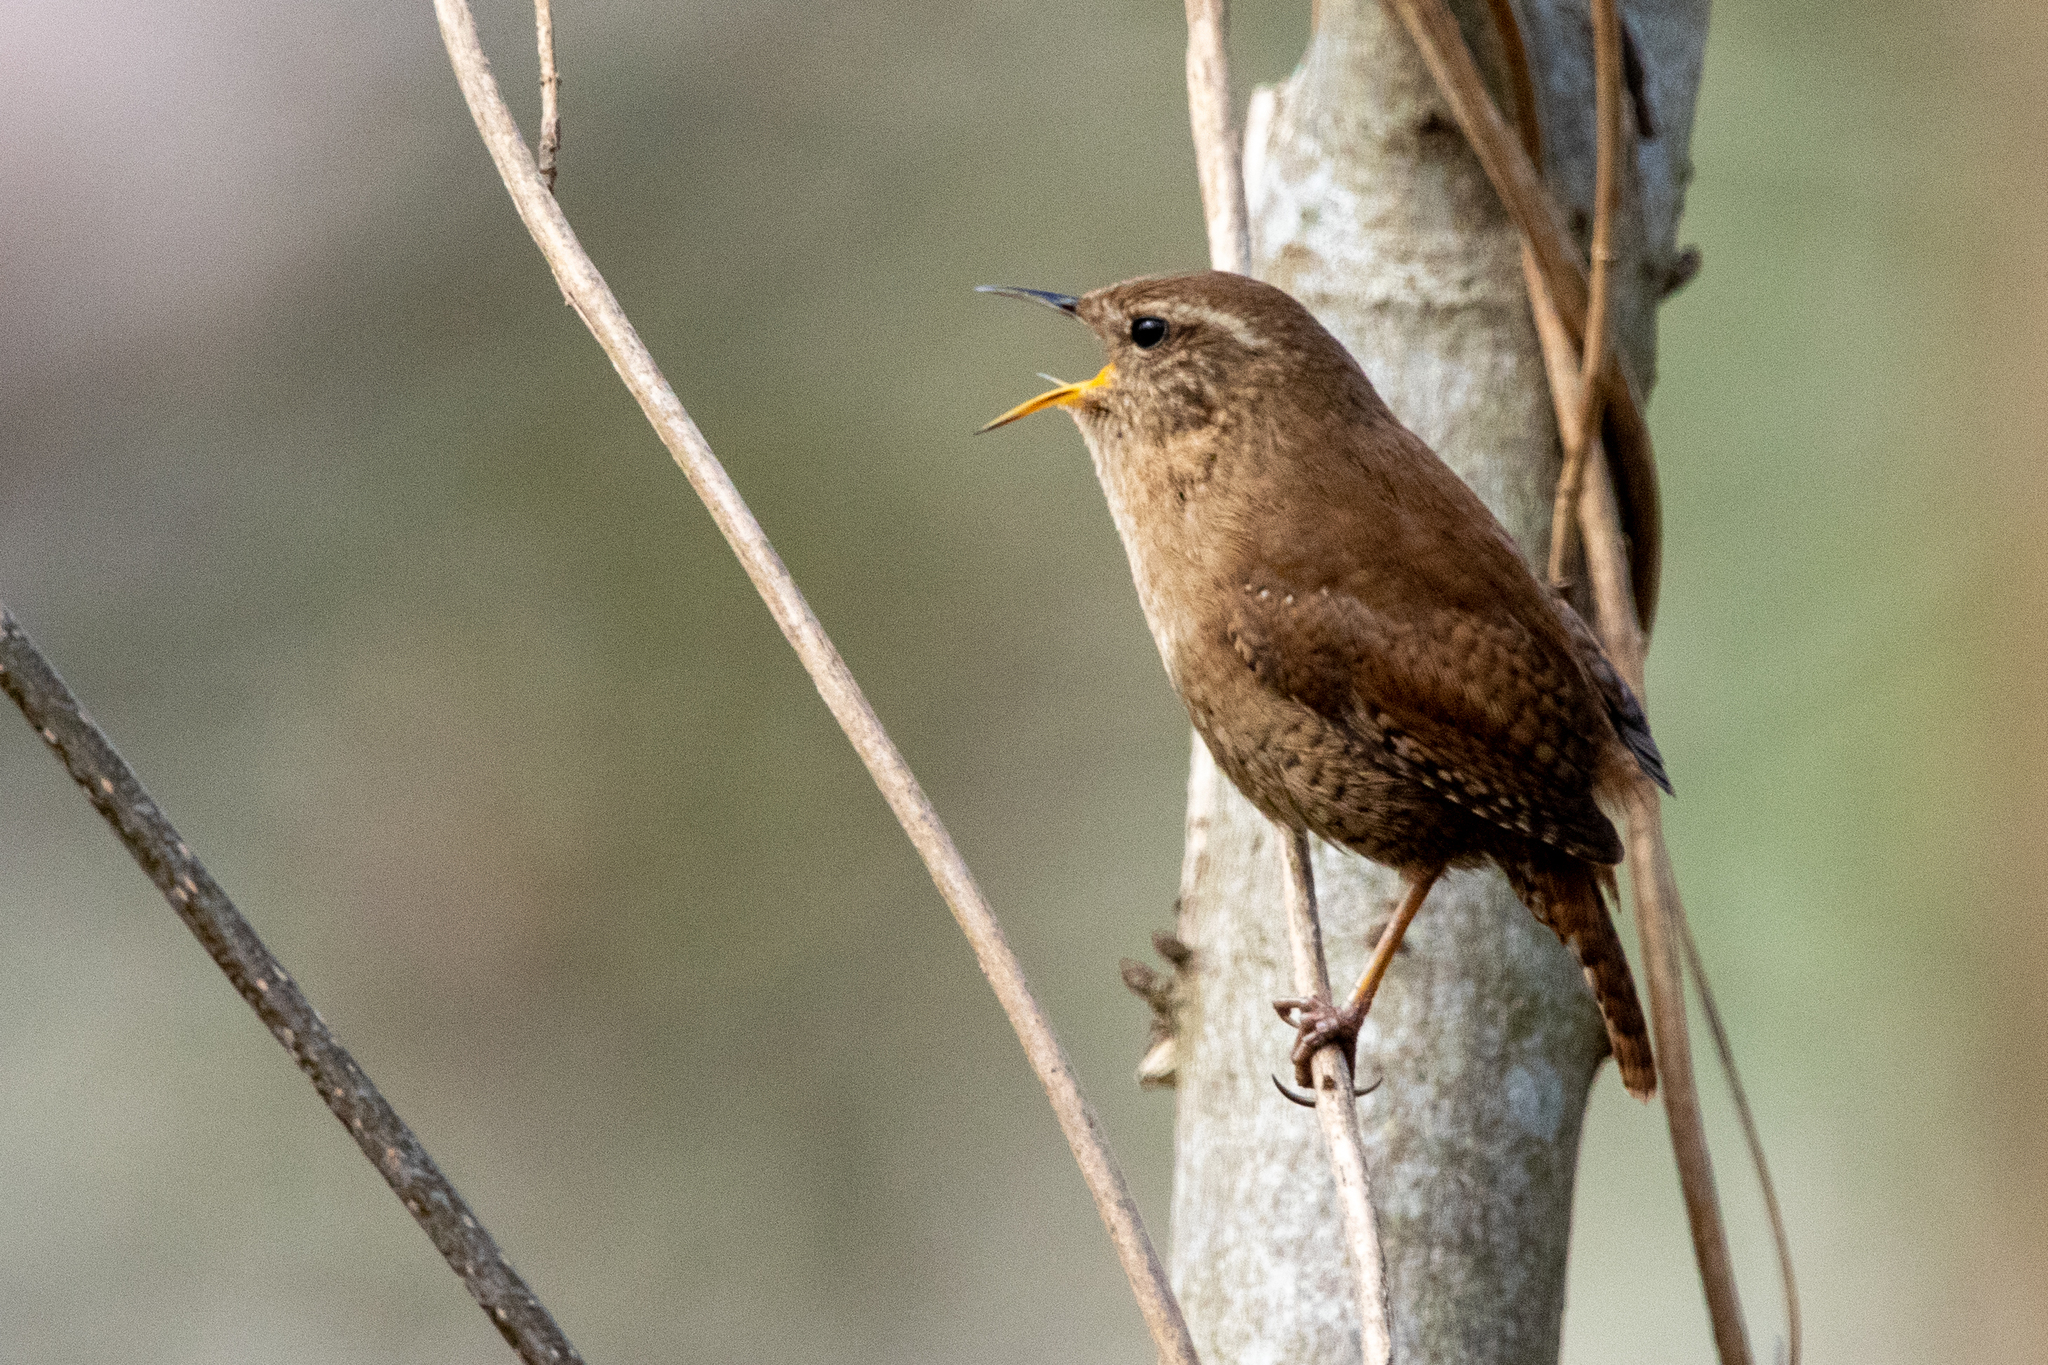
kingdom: Animalia
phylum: Chordata
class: Aves
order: Passeriformes
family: Troglodytidae
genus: Troglodytes
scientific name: Troglodytes troglodytes
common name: Eurasian wren
